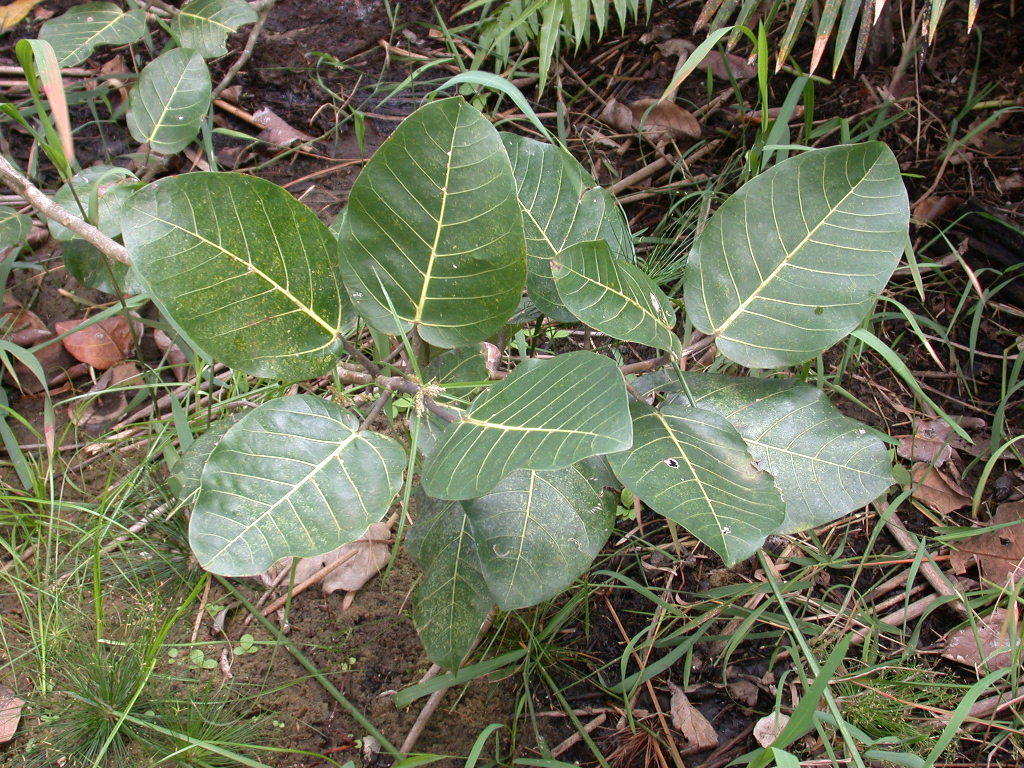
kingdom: Plantae
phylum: Tracheophyta
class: Magnoliopsida
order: Rosales
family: Moraceae
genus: Ficus
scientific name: Ficus trichopoda
